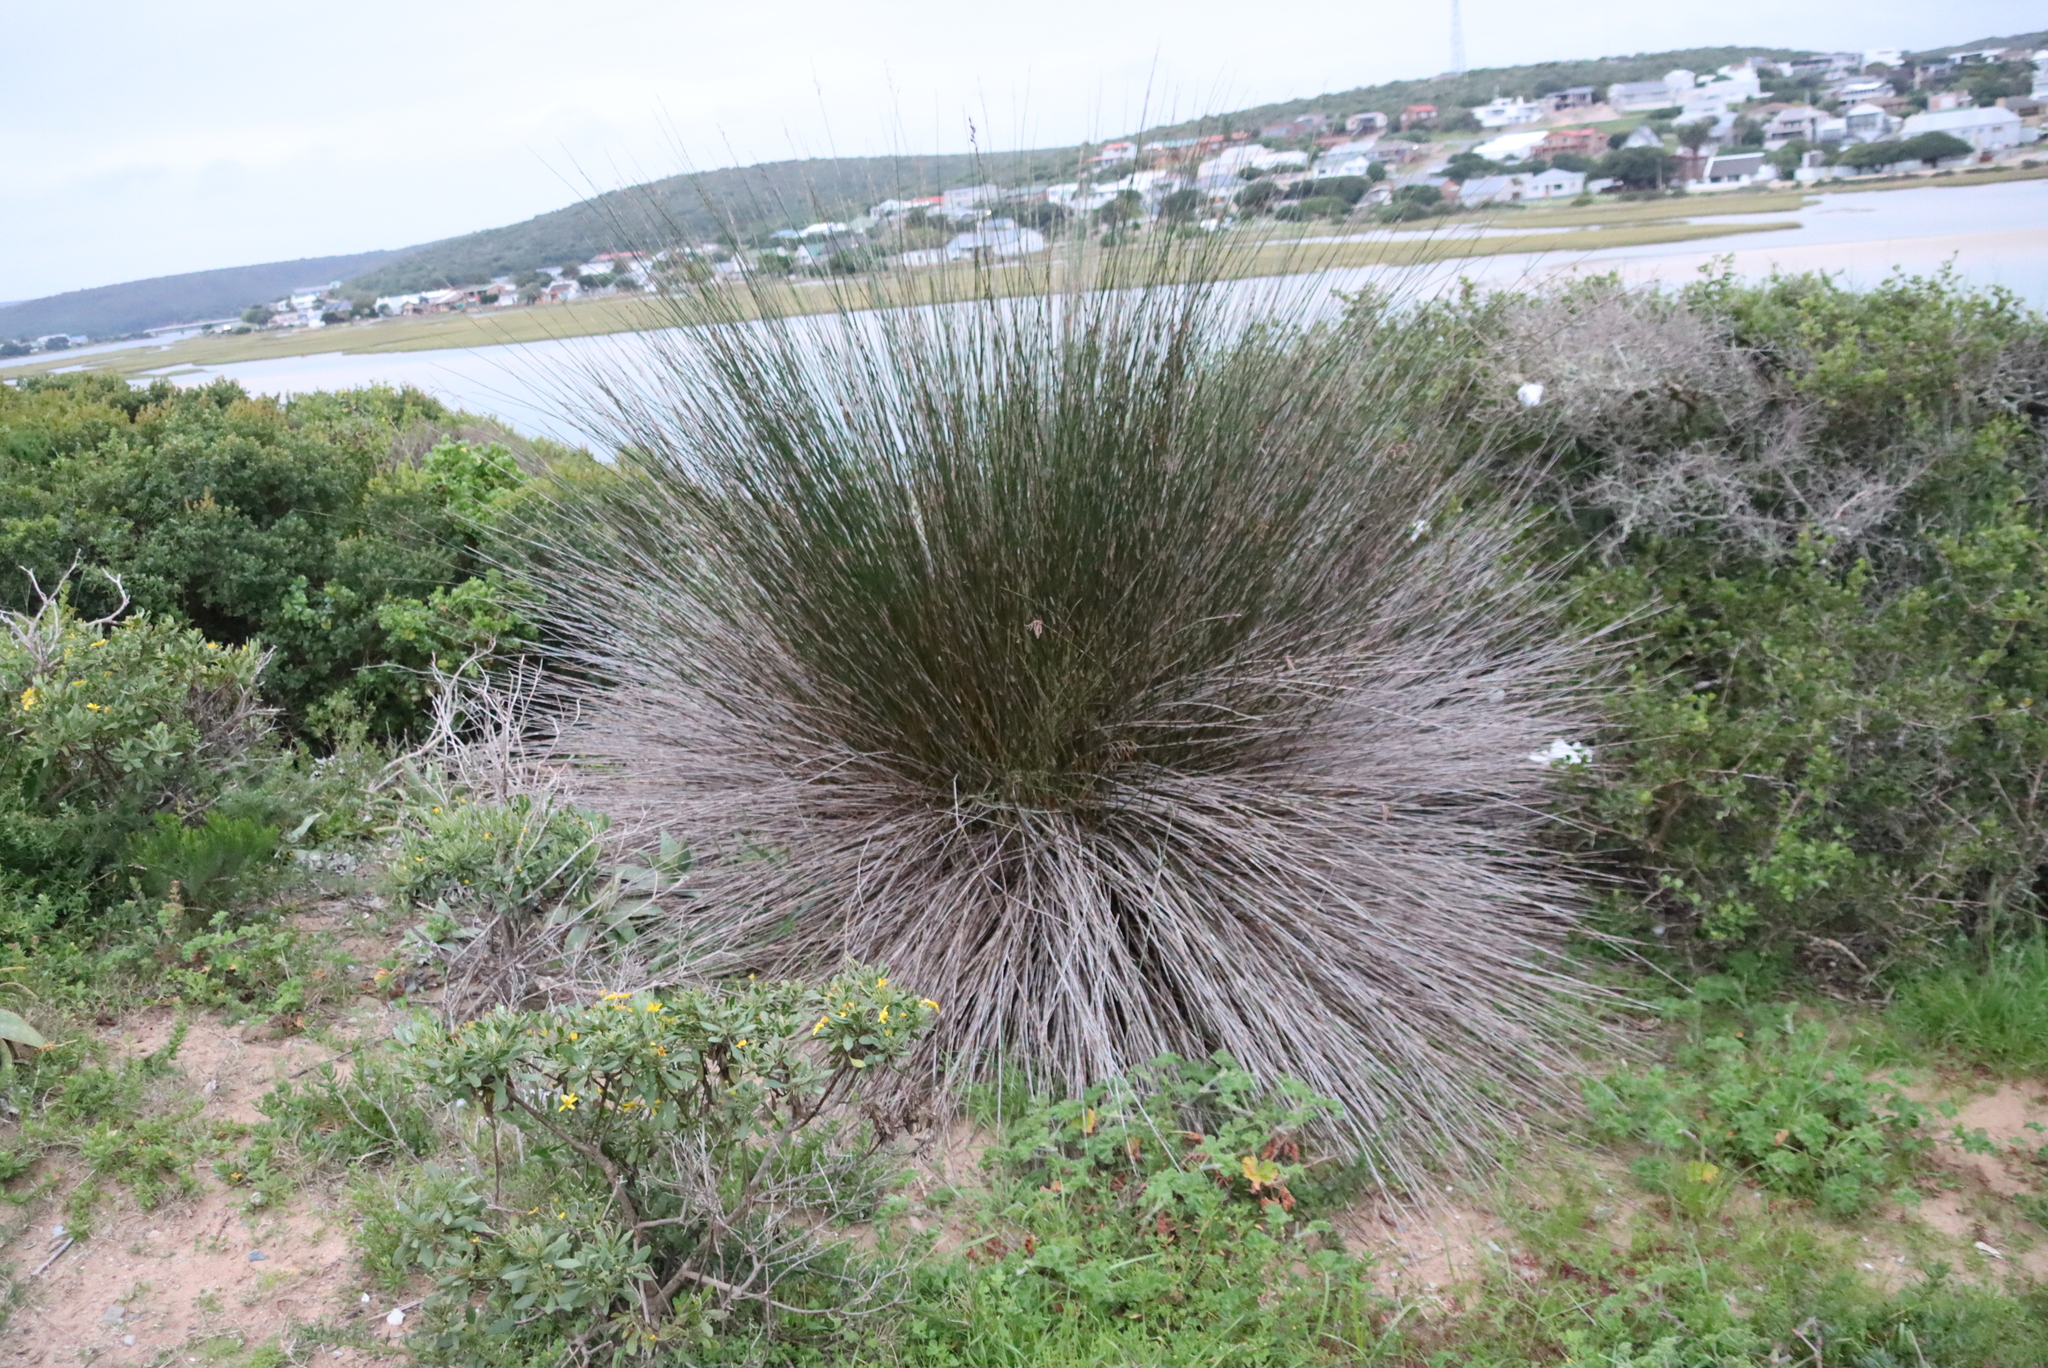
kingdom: Plantae
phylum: Tracheophyta
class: Liliopsida
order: Poales
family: Restionaceae
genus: Thamnochortus
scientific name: Thamnochortus insignis
